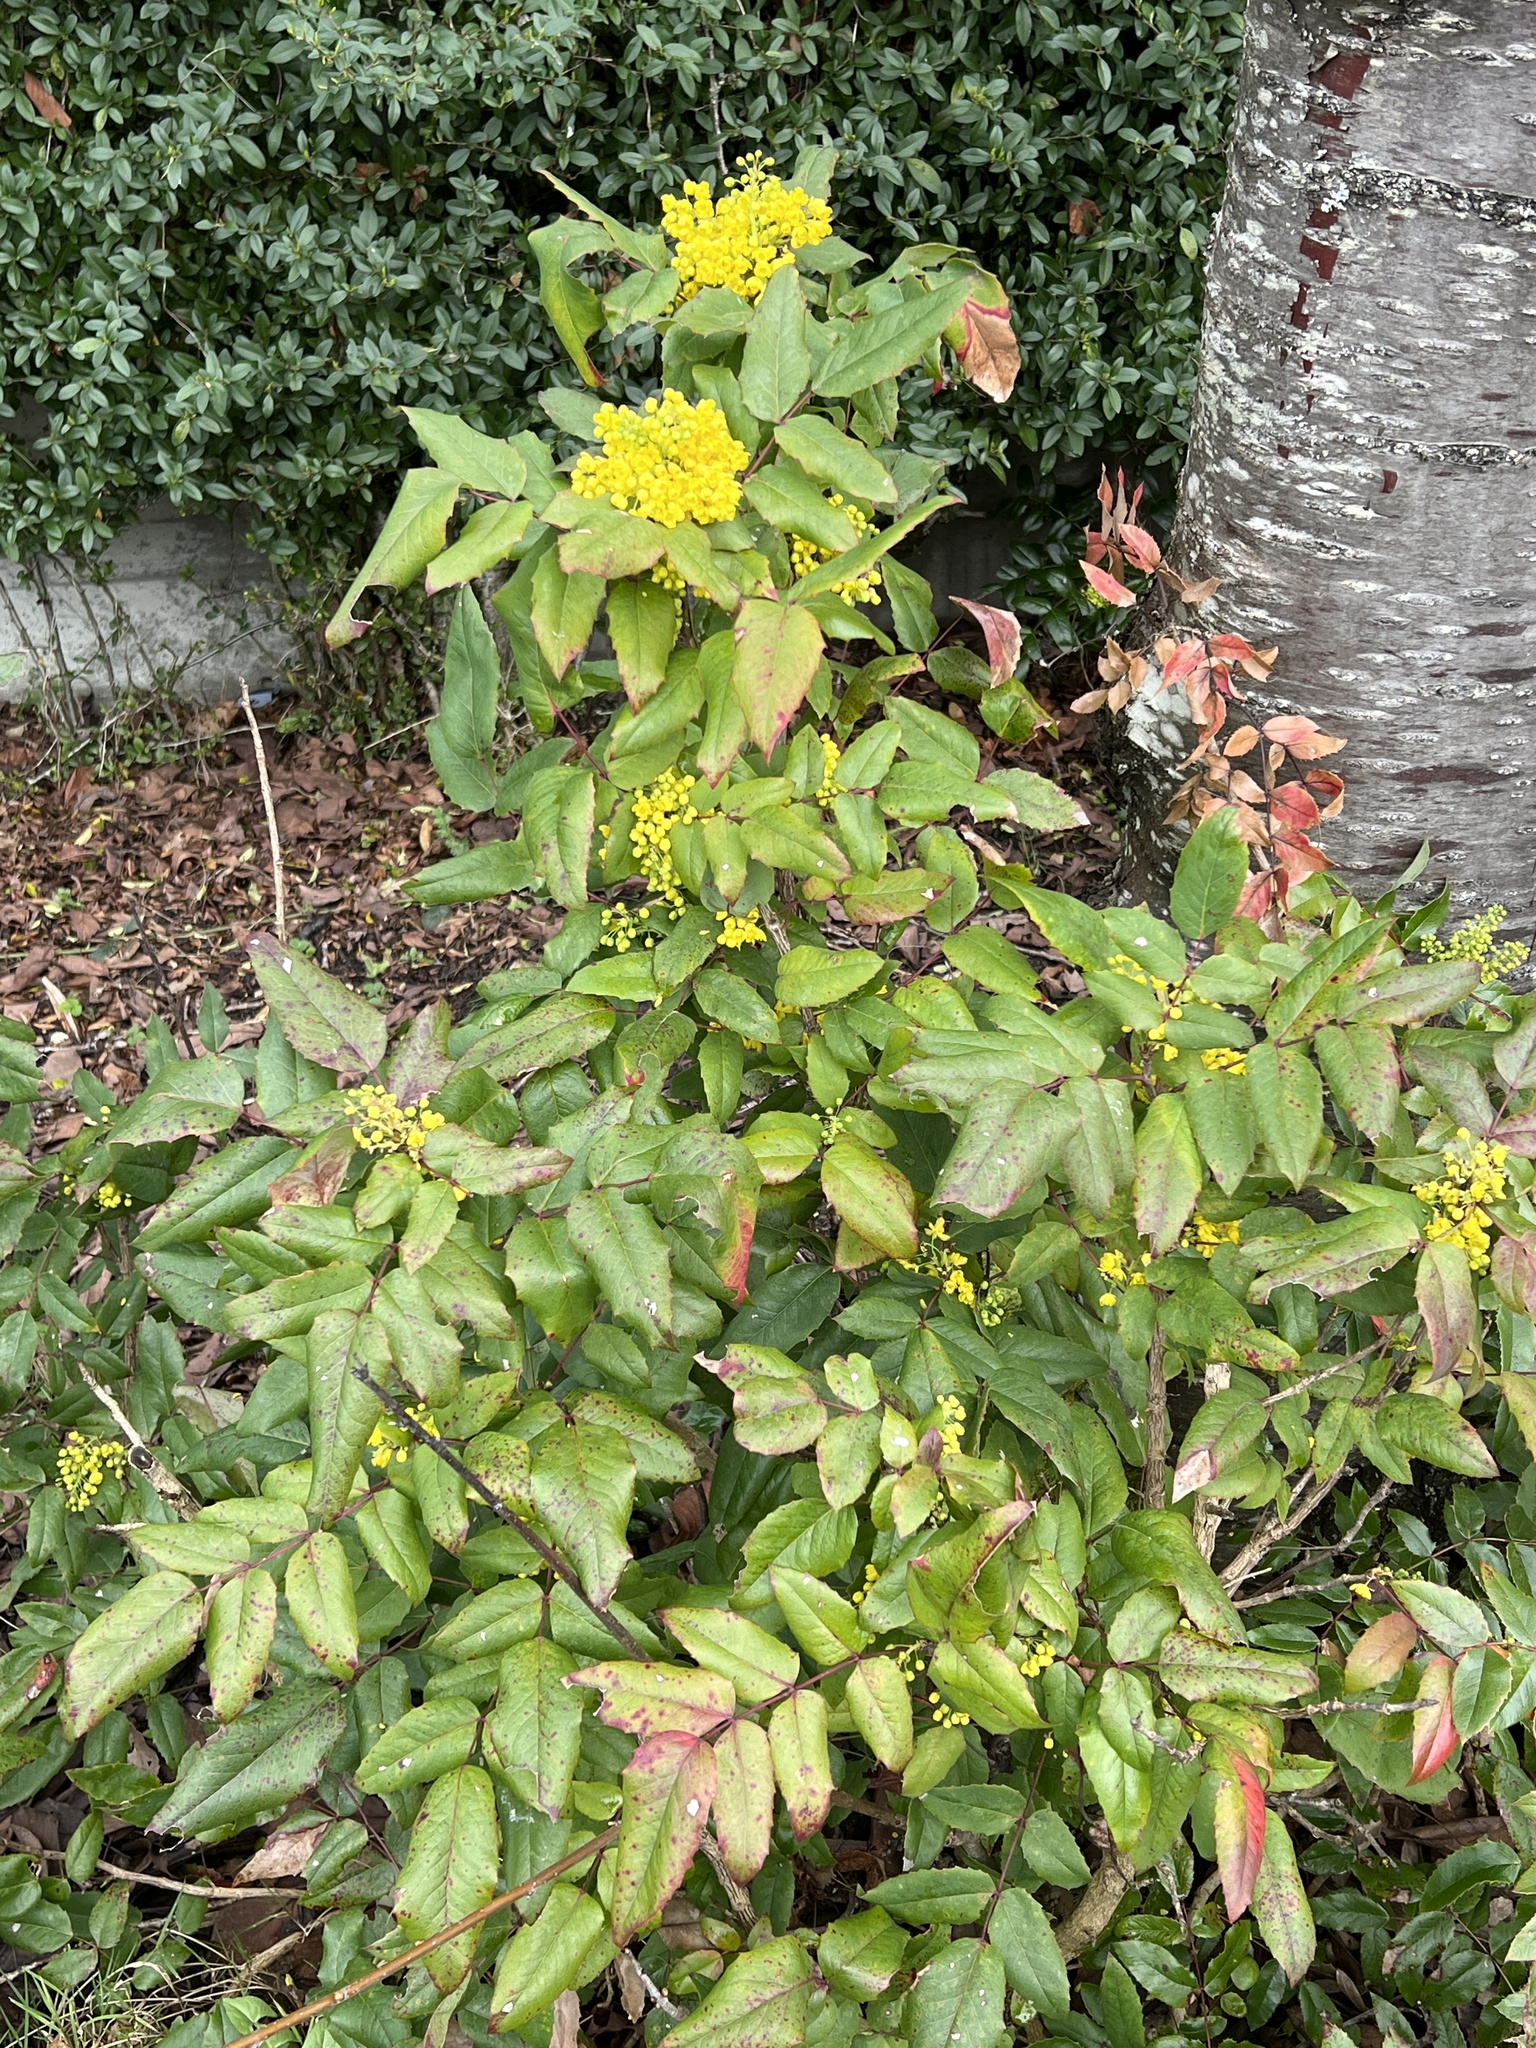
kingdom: Plantae
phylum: Tracheophyta
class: Magnoliopsida
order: Ranunculales
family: Berberidaceae
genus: Mahonia
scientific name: Mahonia aquifolium
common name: Oregon-grape
